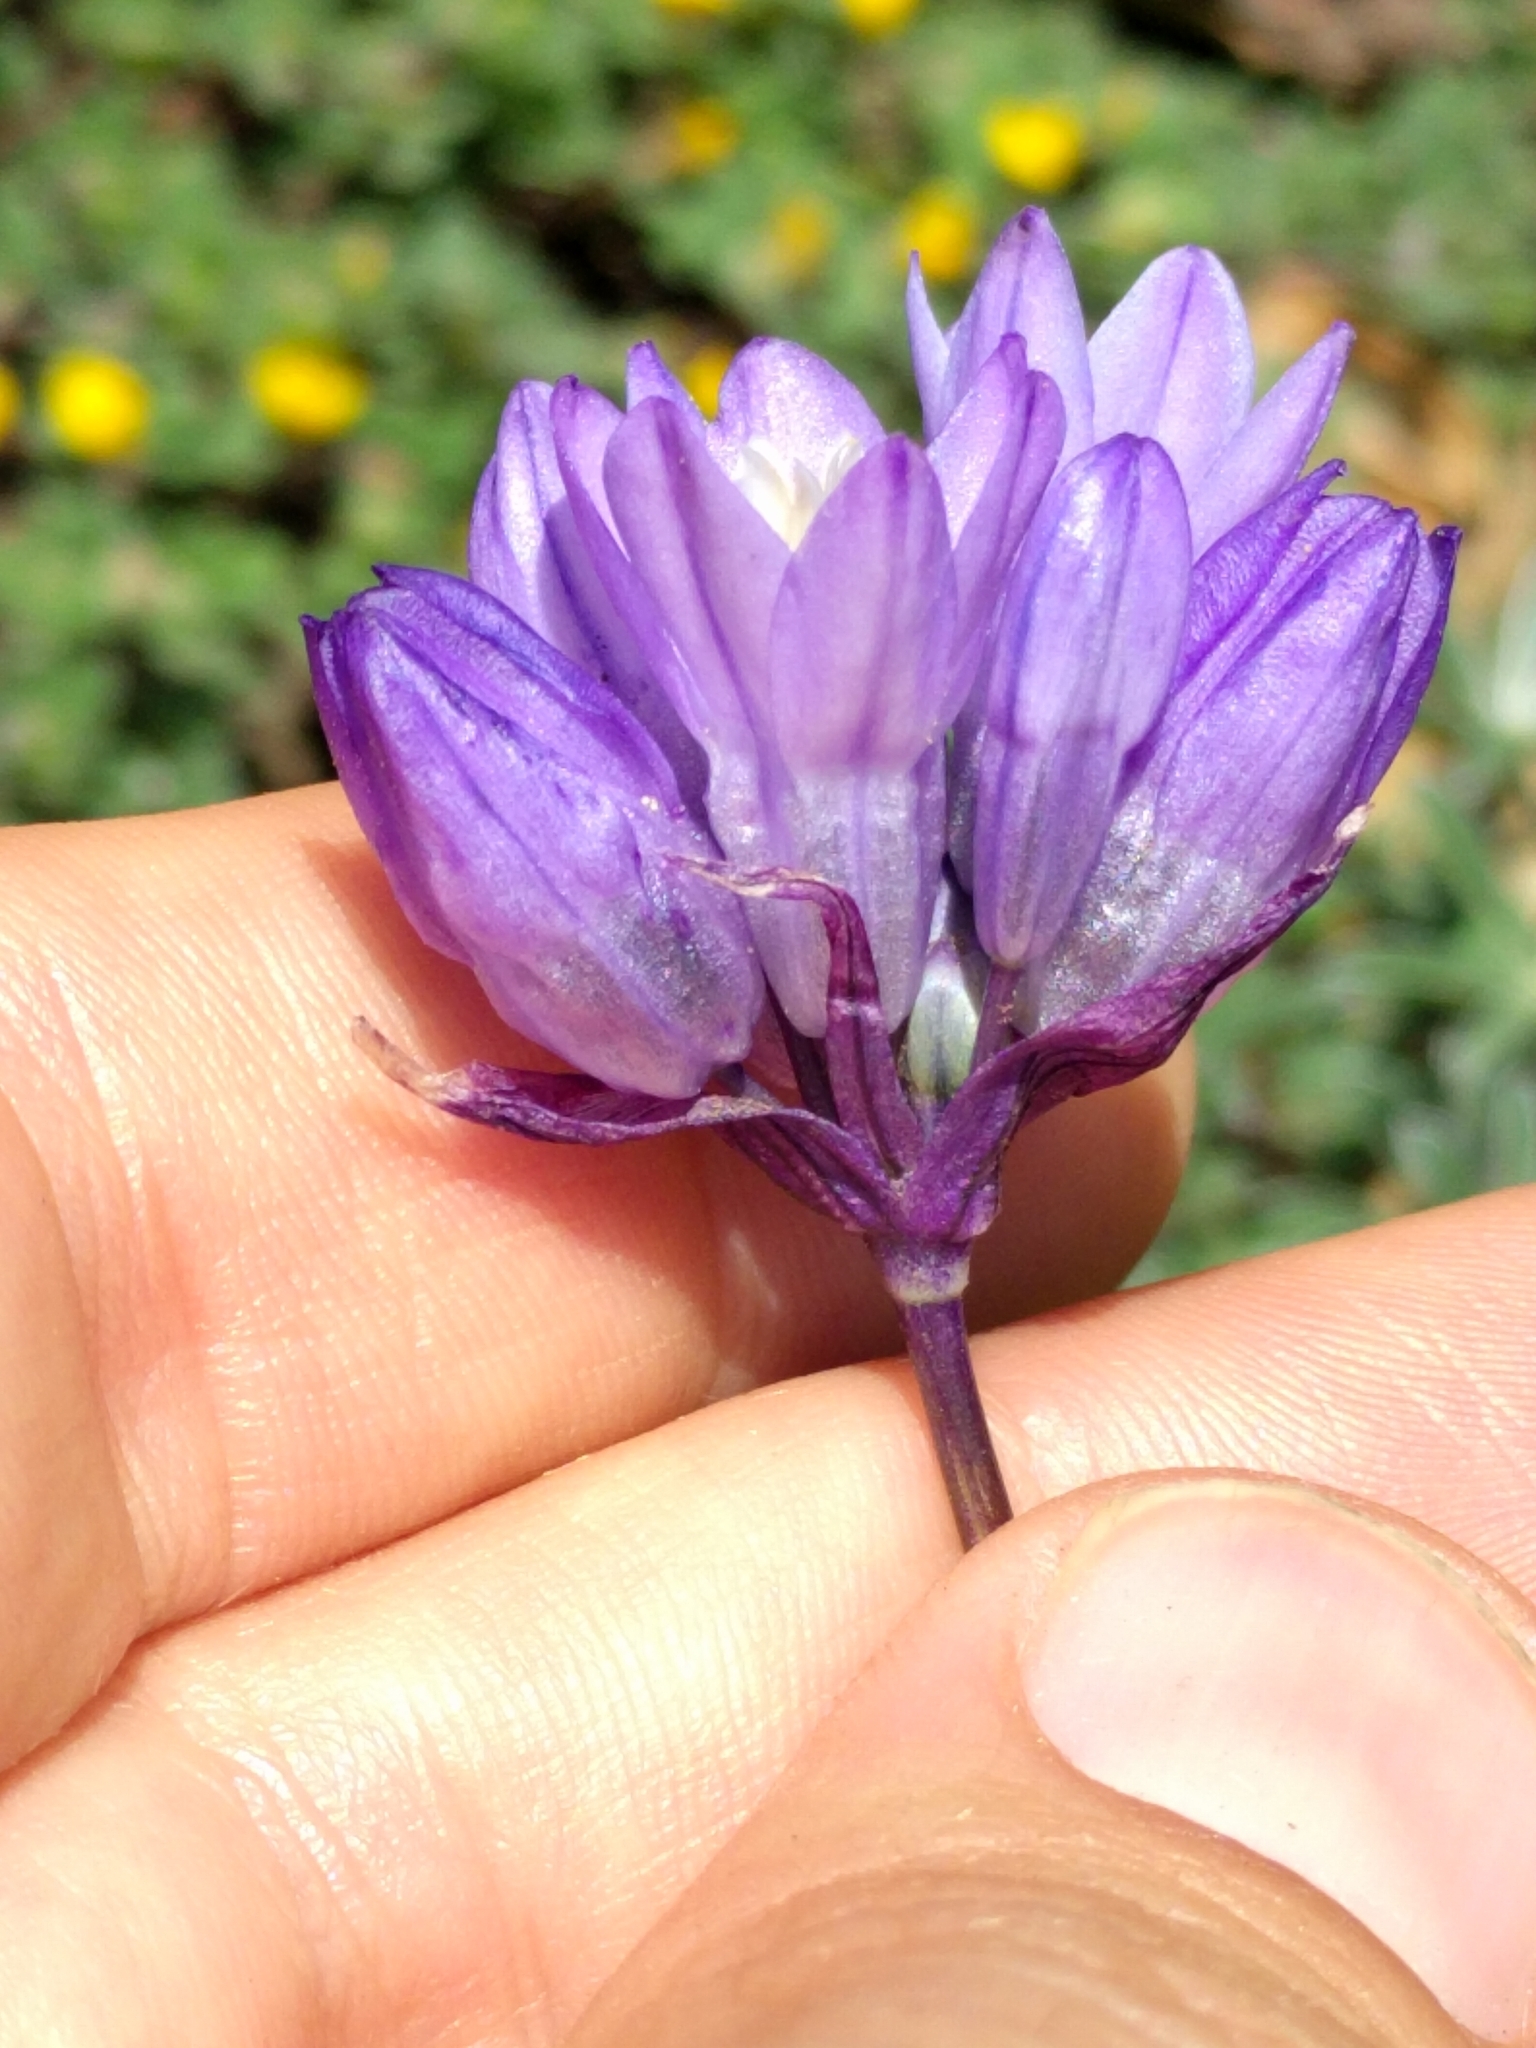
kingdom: Plantae
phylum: Tracheophyta
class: Liliopsida
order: Asparagales
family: Asparagaceae
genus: Dipterostemon
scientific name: Dipterostemon capitatus
